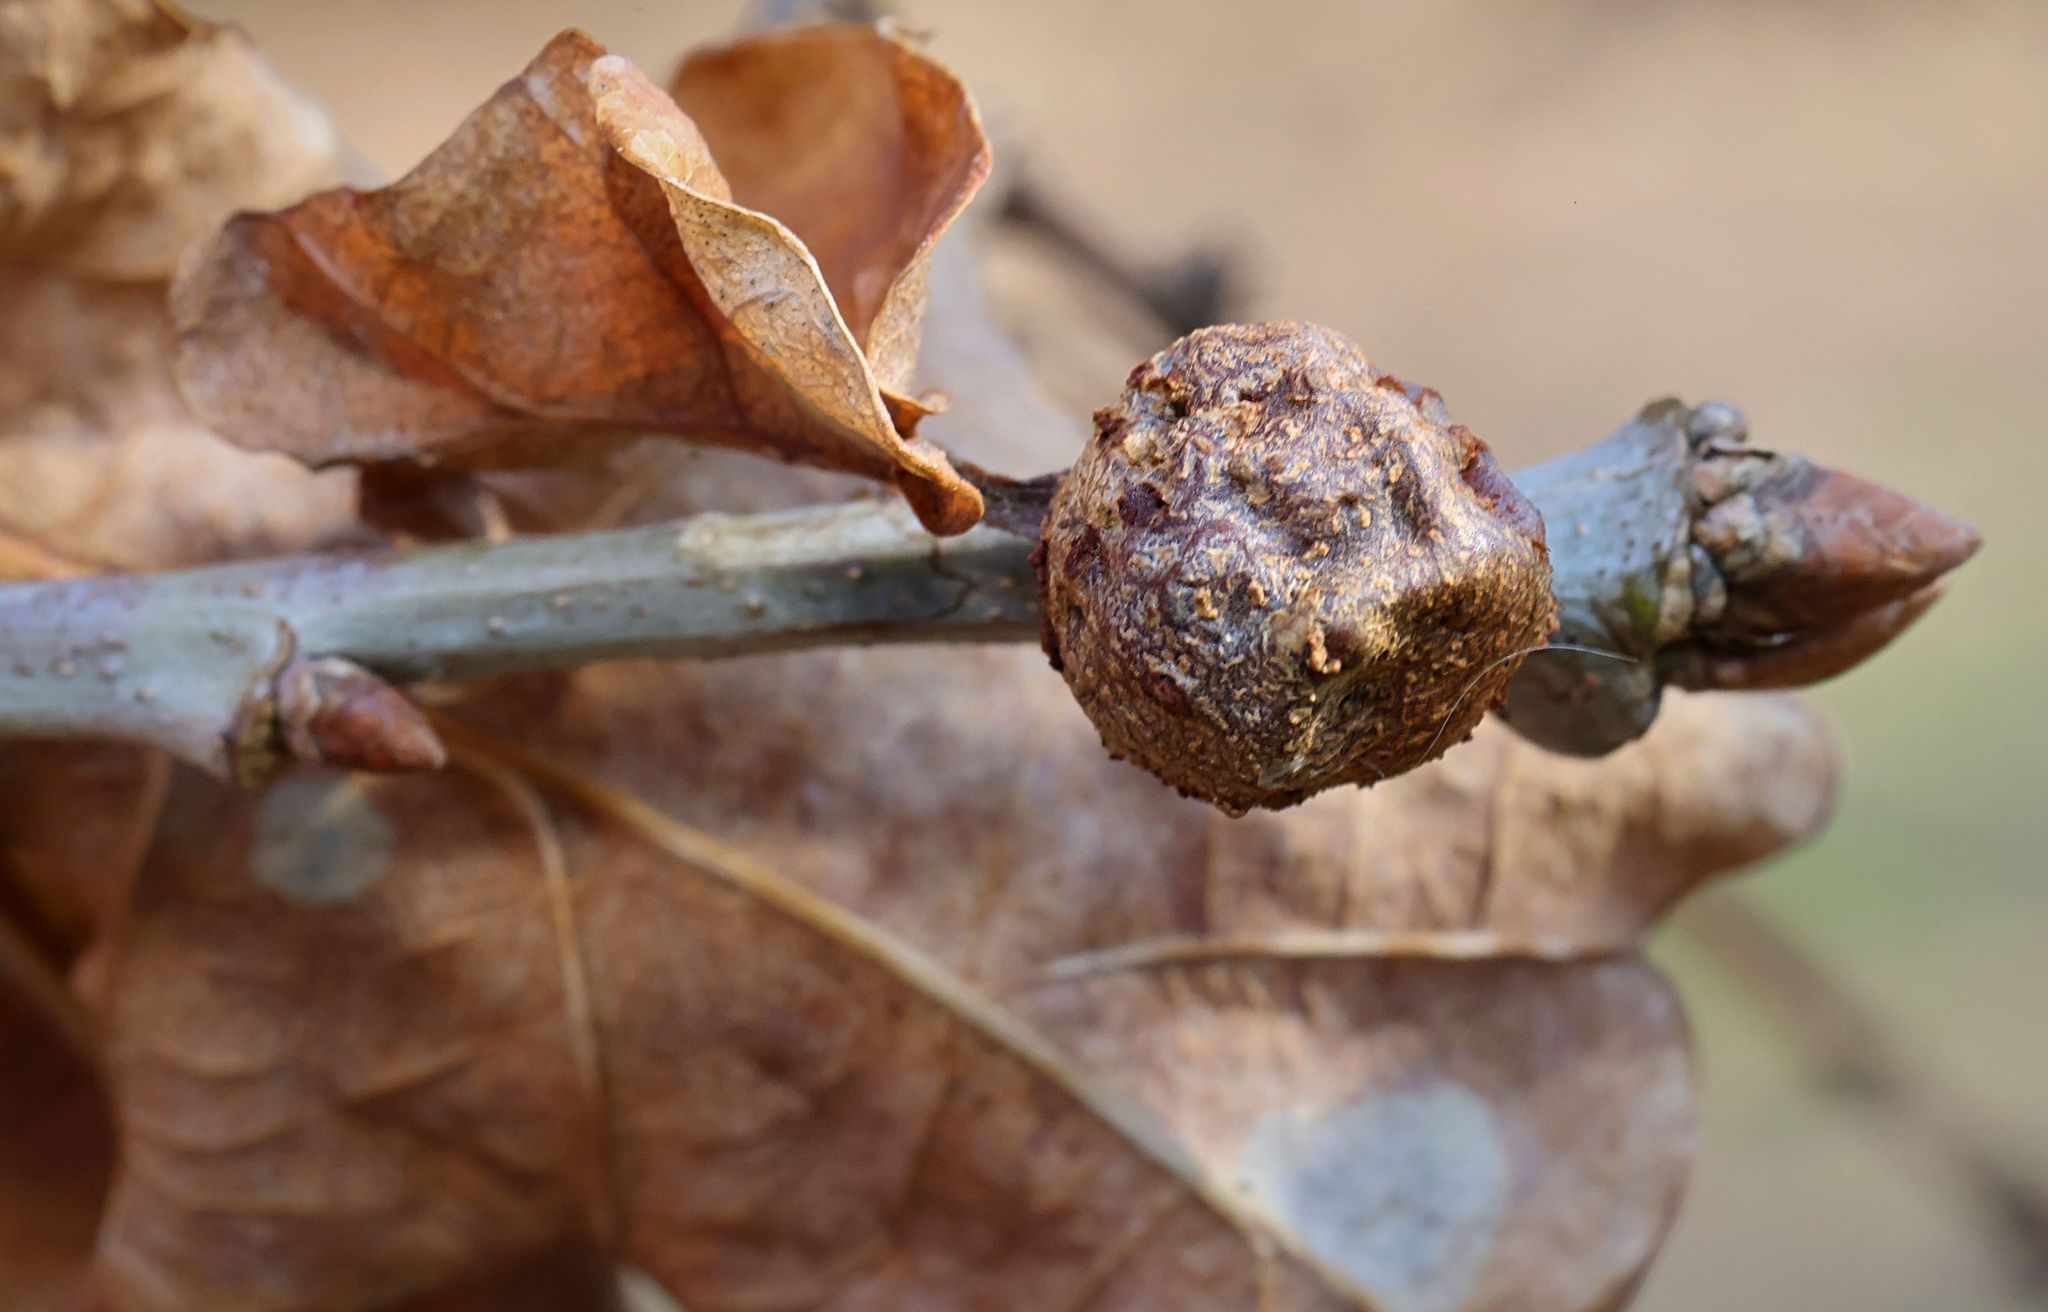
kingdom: Animalia
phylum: Arthropoda
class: Insecta
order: Hymenoptera
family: Cynipidae
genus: Andricus
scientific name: Andricus lignicolus
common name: Cola-nut gall
